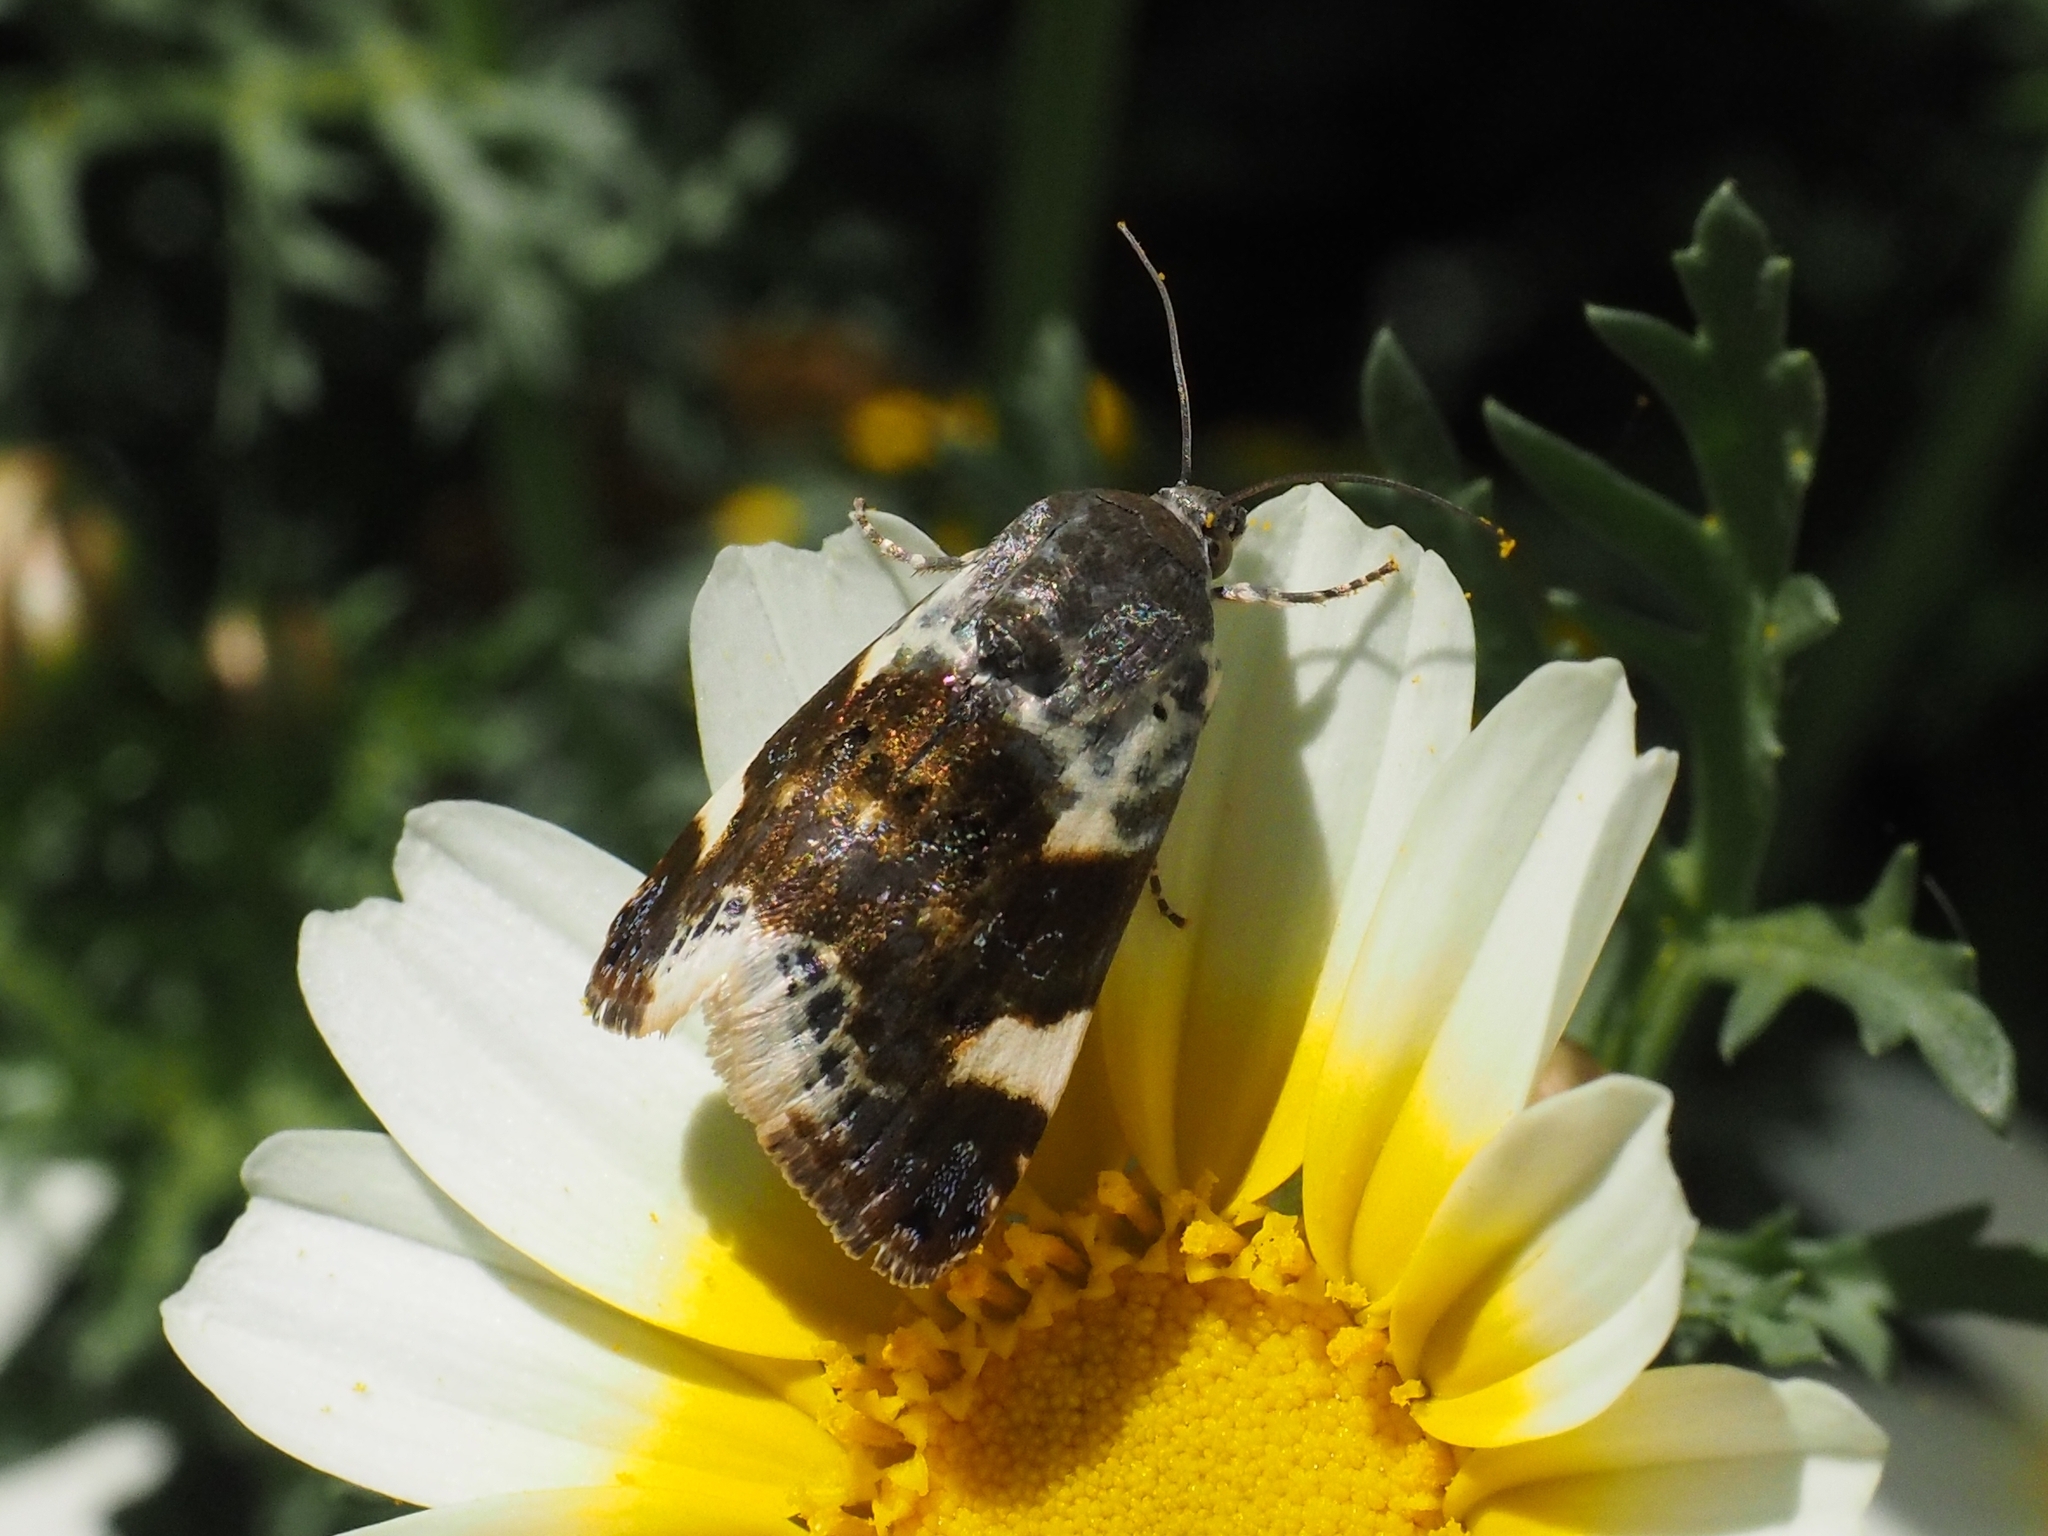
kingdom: Animalia
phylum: Arthropoda
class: Insecta
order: Lepidoptera
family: Noctuidae
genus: Acontia
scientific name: Acontia lucida
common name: Pale shoulder
